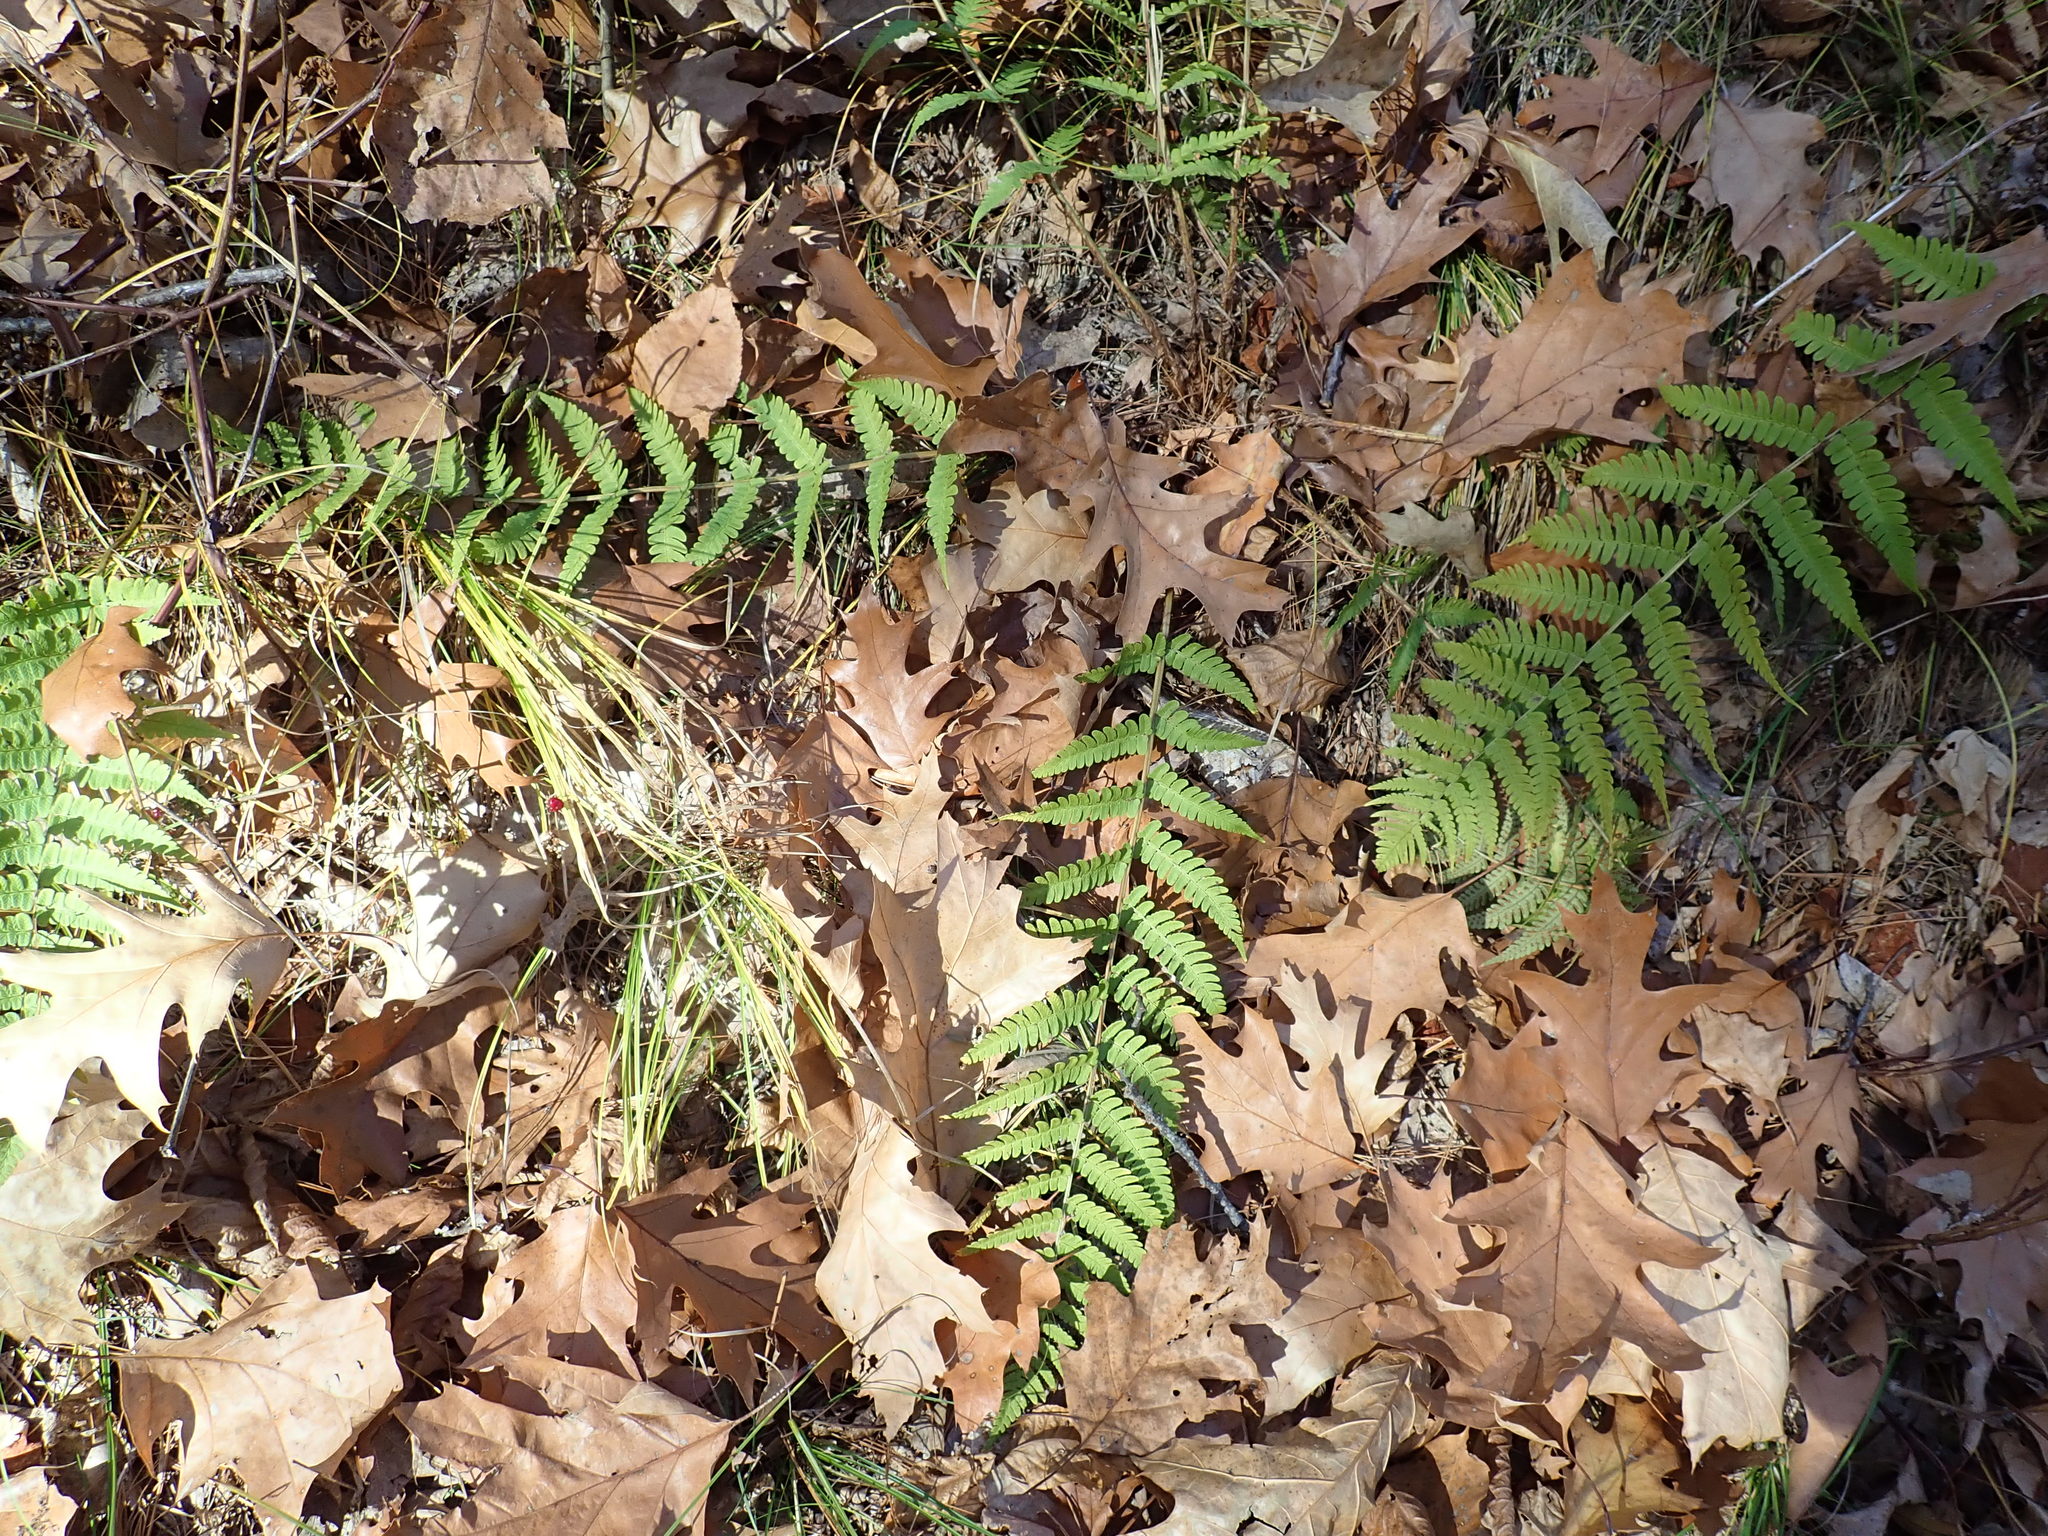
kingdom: Plantae
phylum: Tracheophyta
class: Polypodiopsida
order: Polypodiales
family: Dryopteridaceae
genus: Dryopteris
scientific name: Dryopteris marginalis
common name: Marginal wood fern
